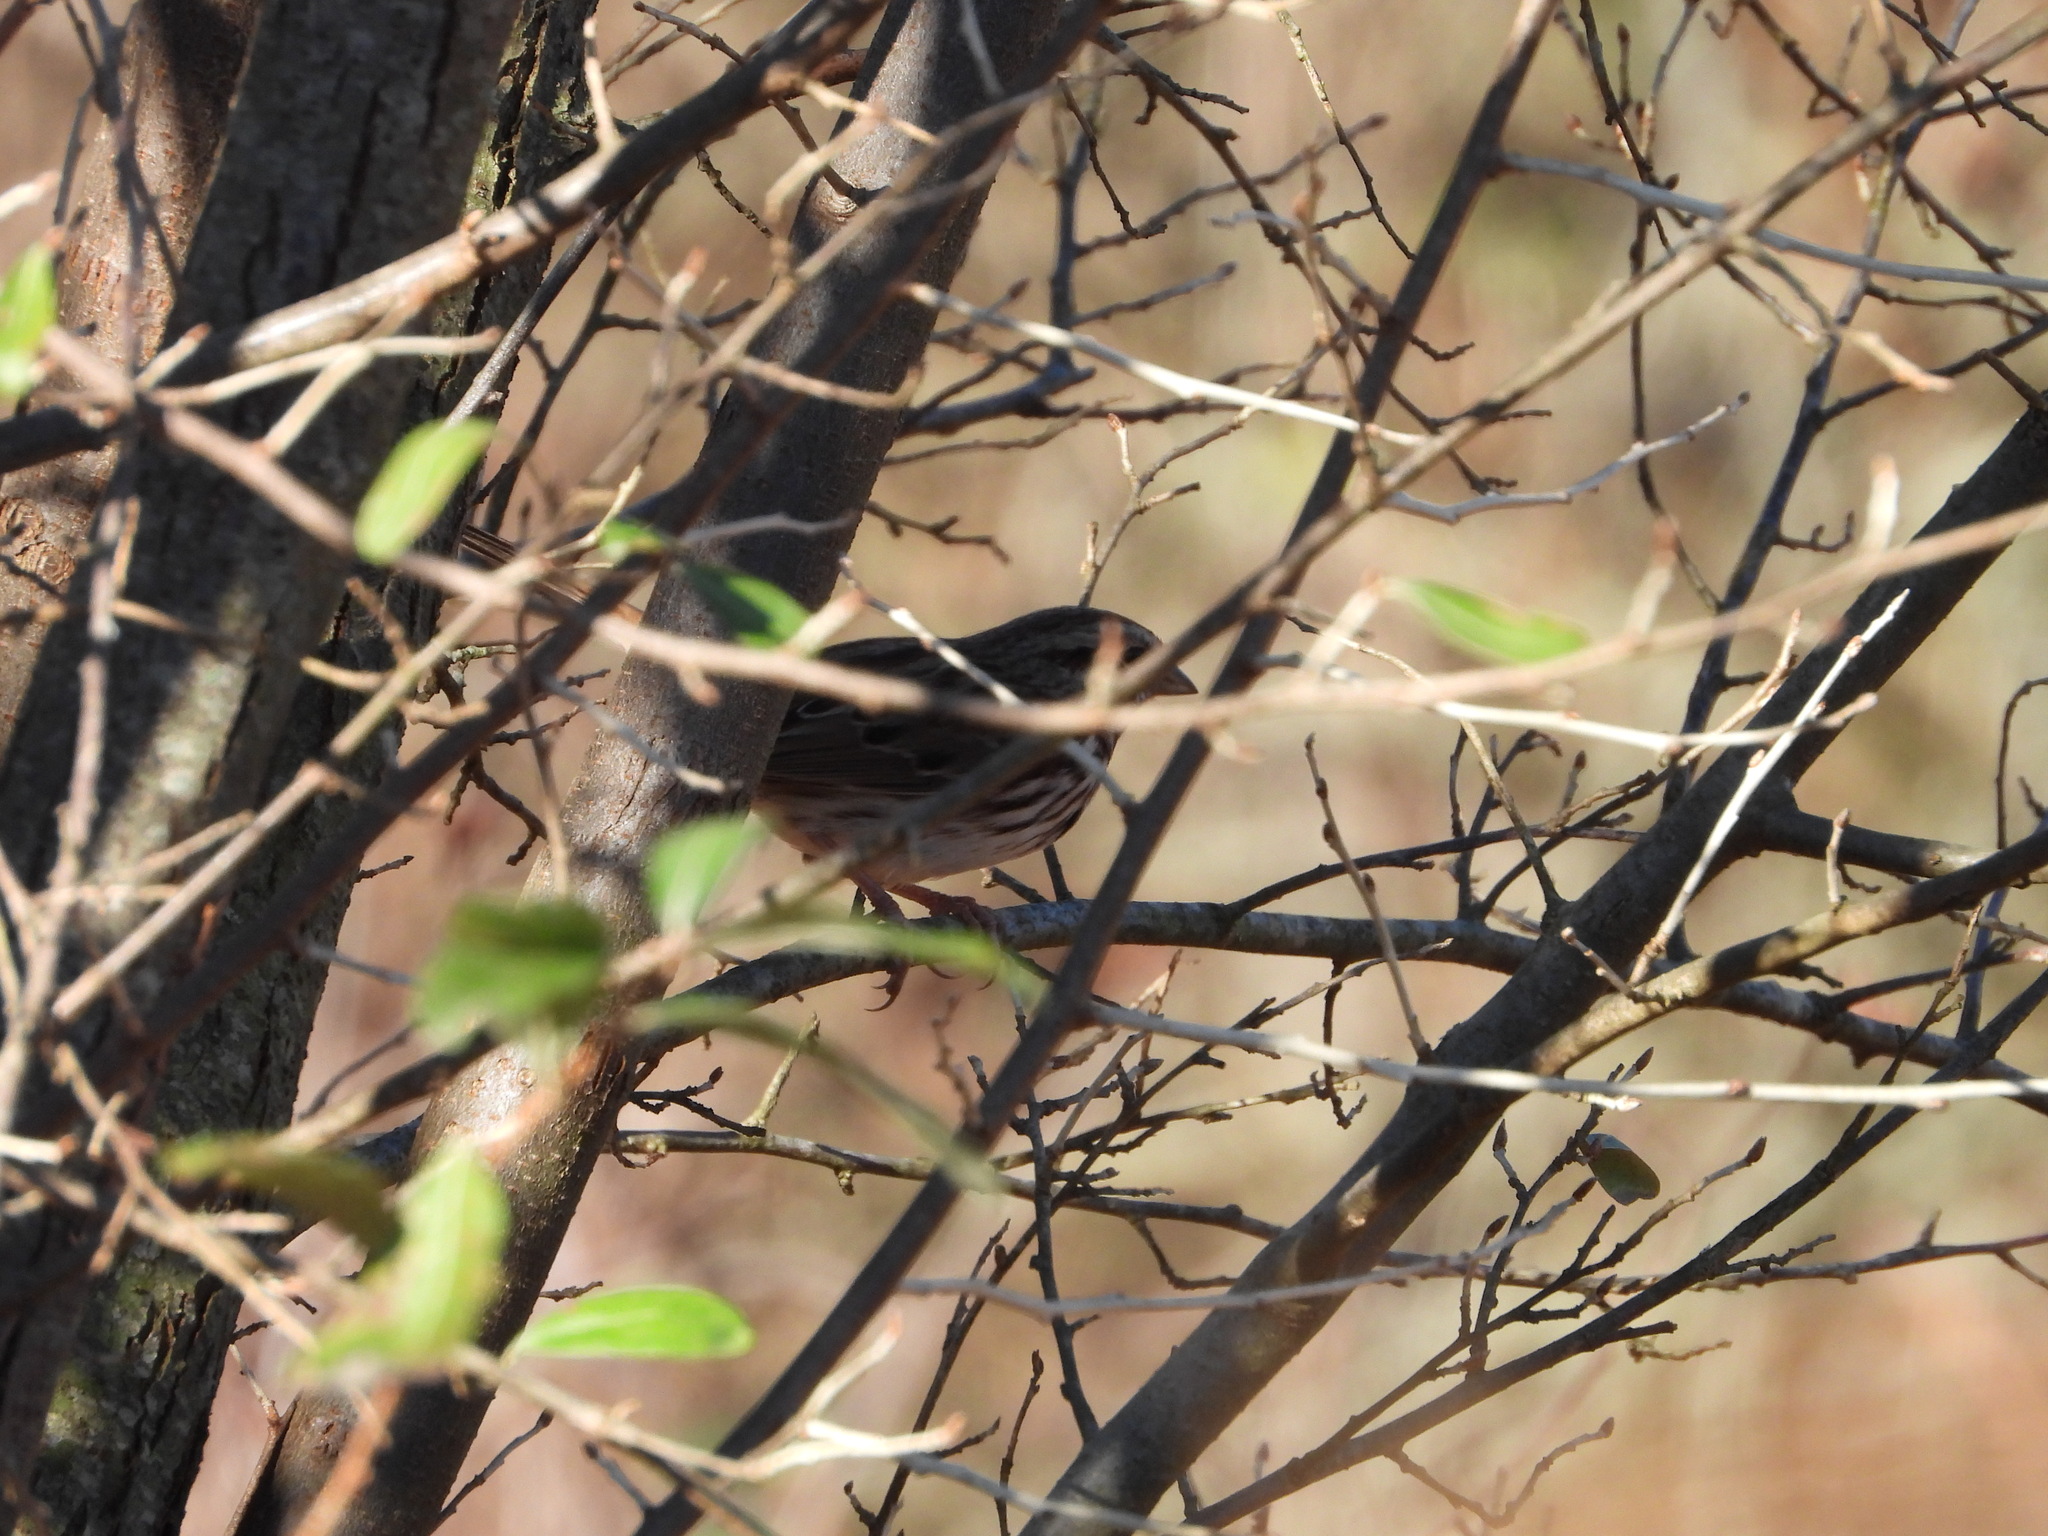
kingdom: Animalia
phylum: Chordata
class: Aves
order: Passeriformes
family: Passerellidae
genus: Melospiza
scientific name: Melospiza melodia
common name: Song sparrow
